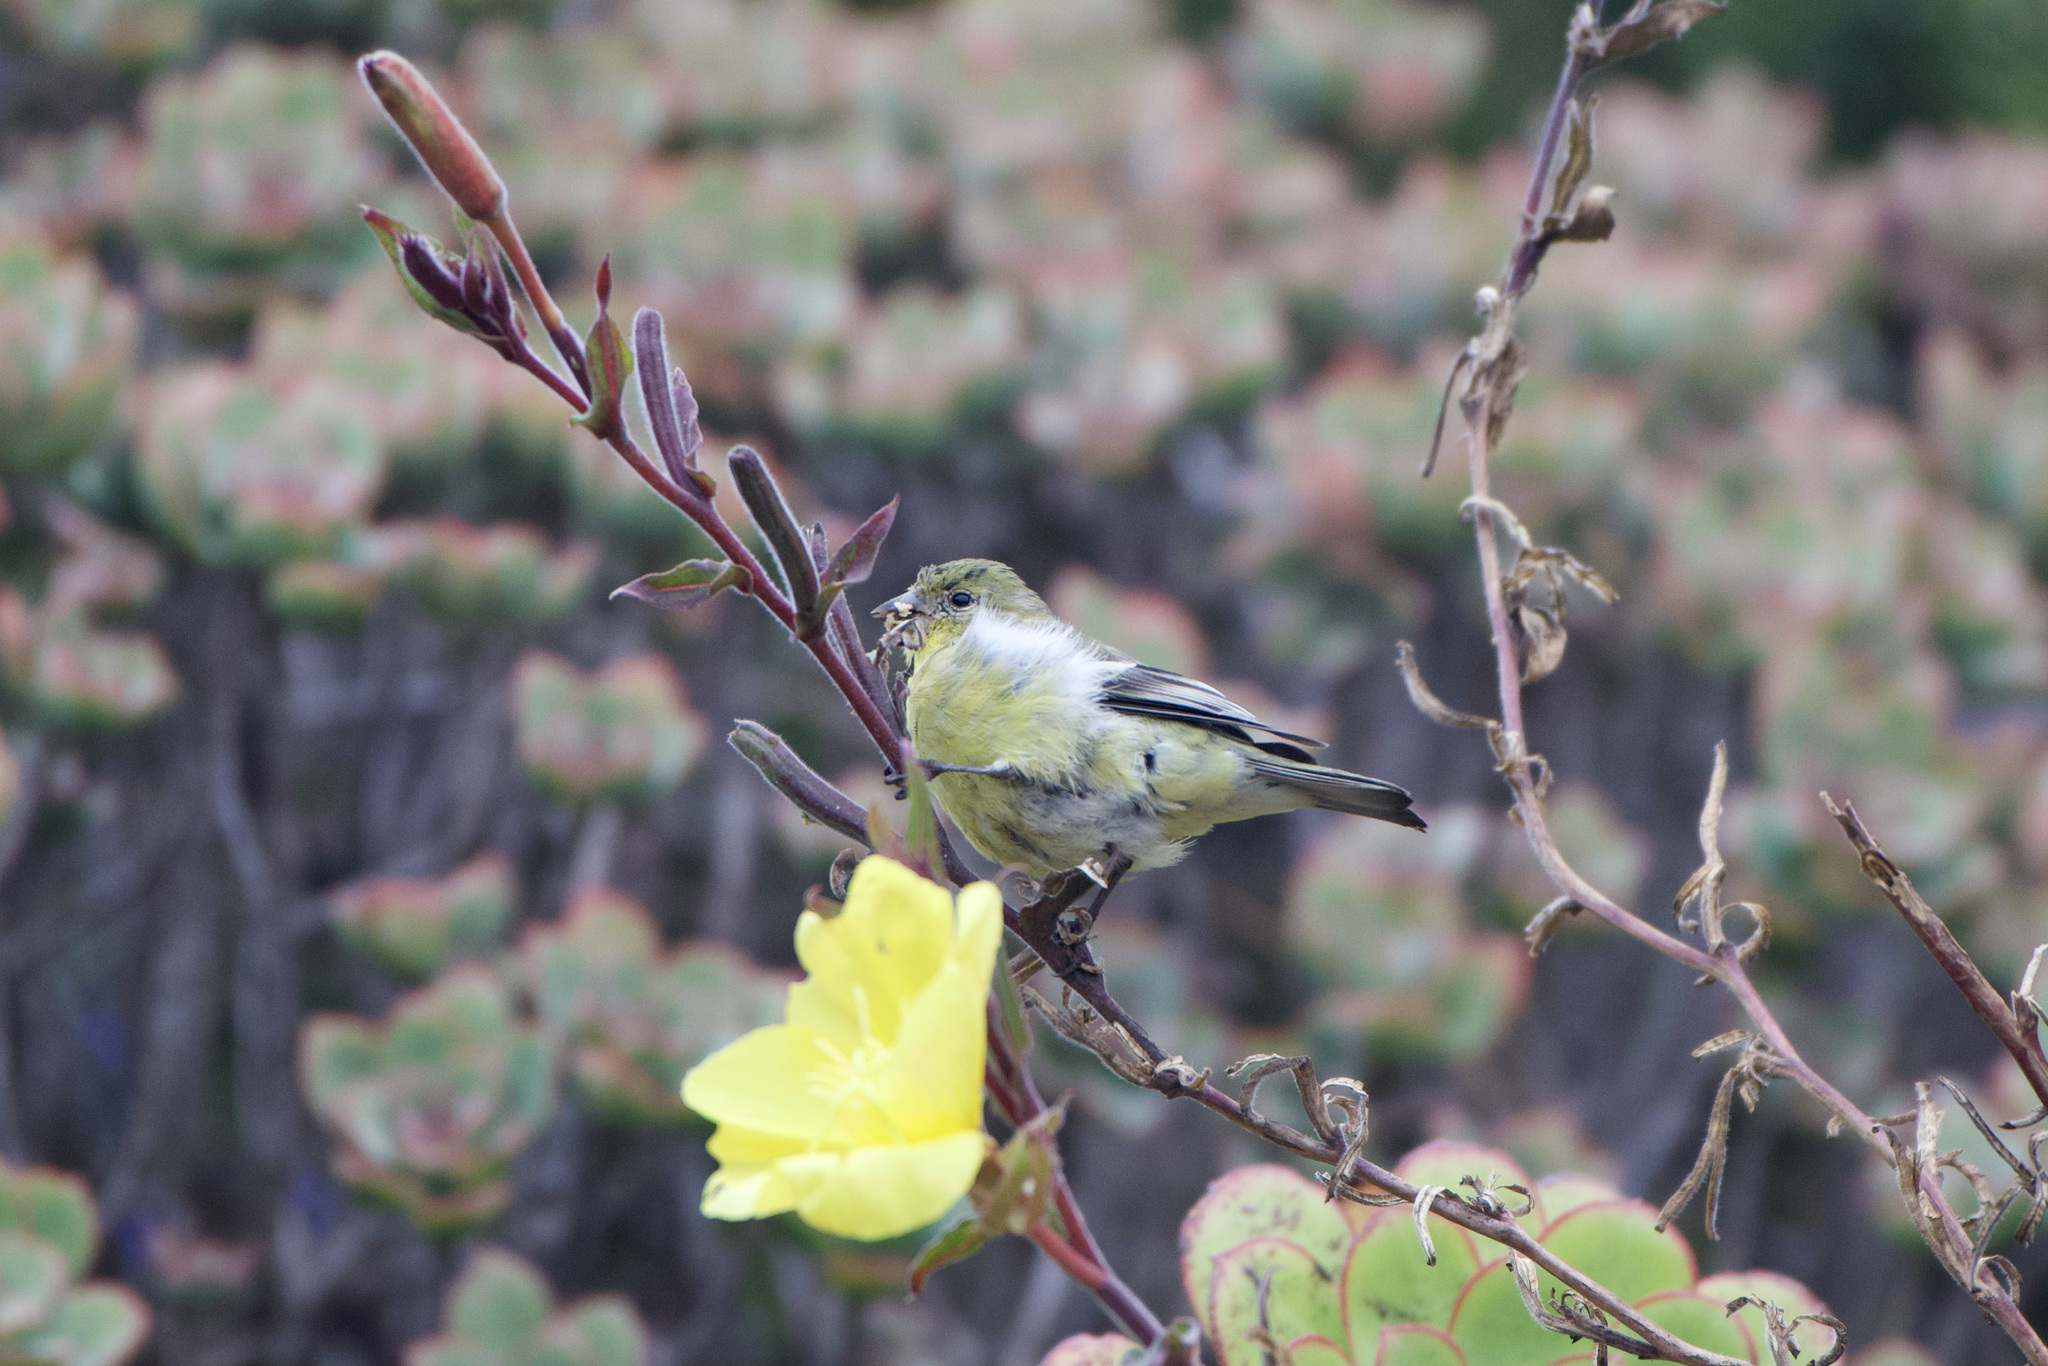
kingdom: Animalia
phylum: Chordata
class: Aves
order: Passeriformes
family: Fringillidae
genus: Spinus
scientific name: Spinus psaltria
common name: Lesser goldfinch
